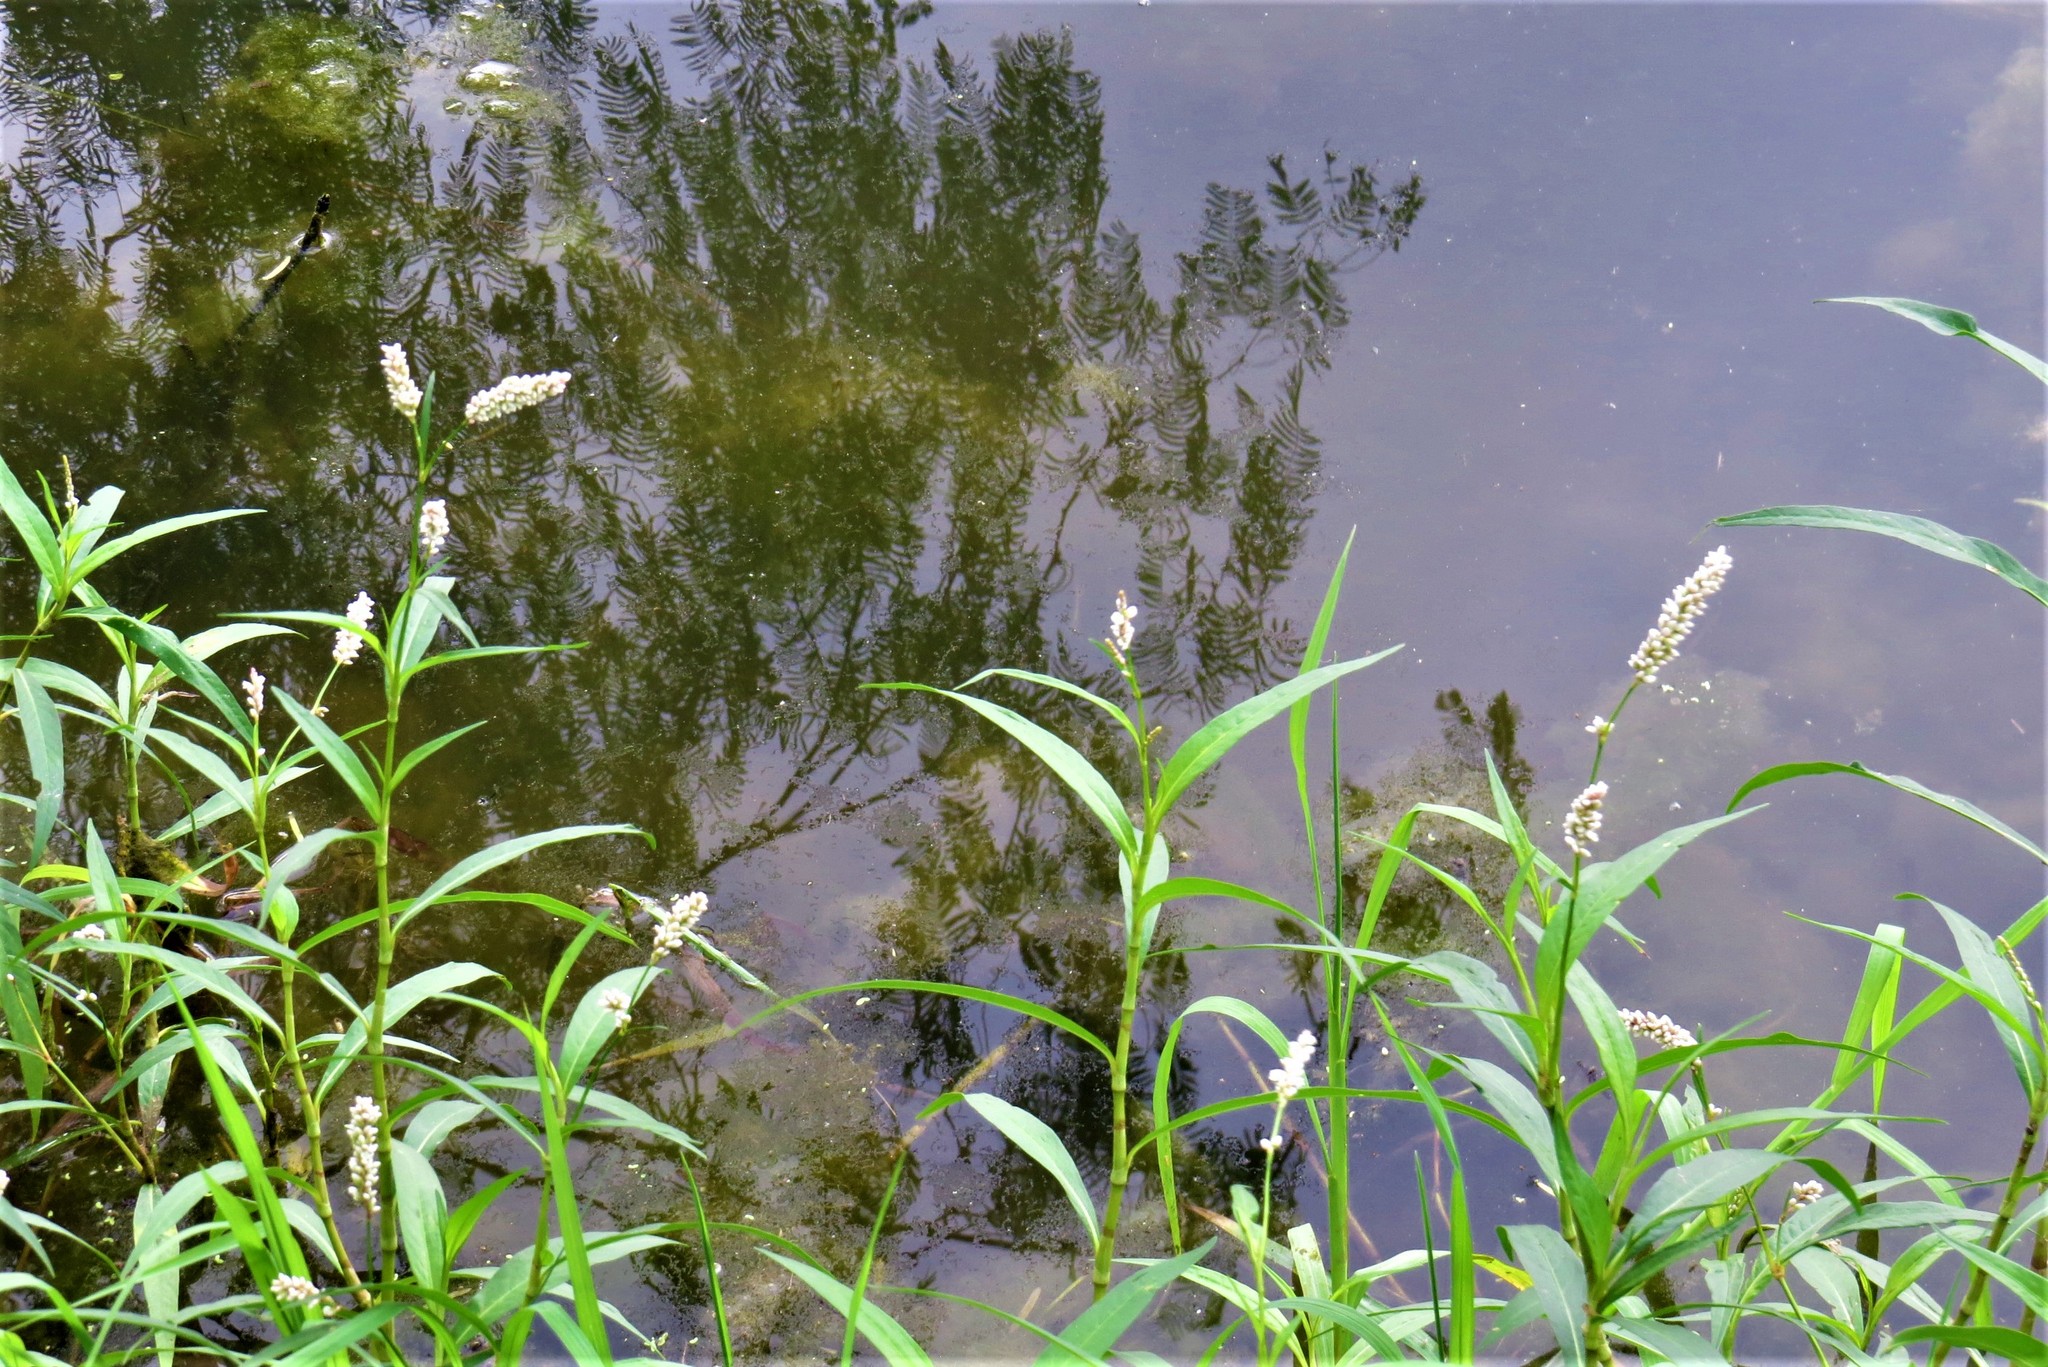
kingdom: Plantae
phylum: Tracheophyta
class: Magnoliopsida
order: Caryophyllales
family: Polygonaceae
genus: Persicaria
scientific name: Persicaria pensylvanica
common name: Pinkweed
